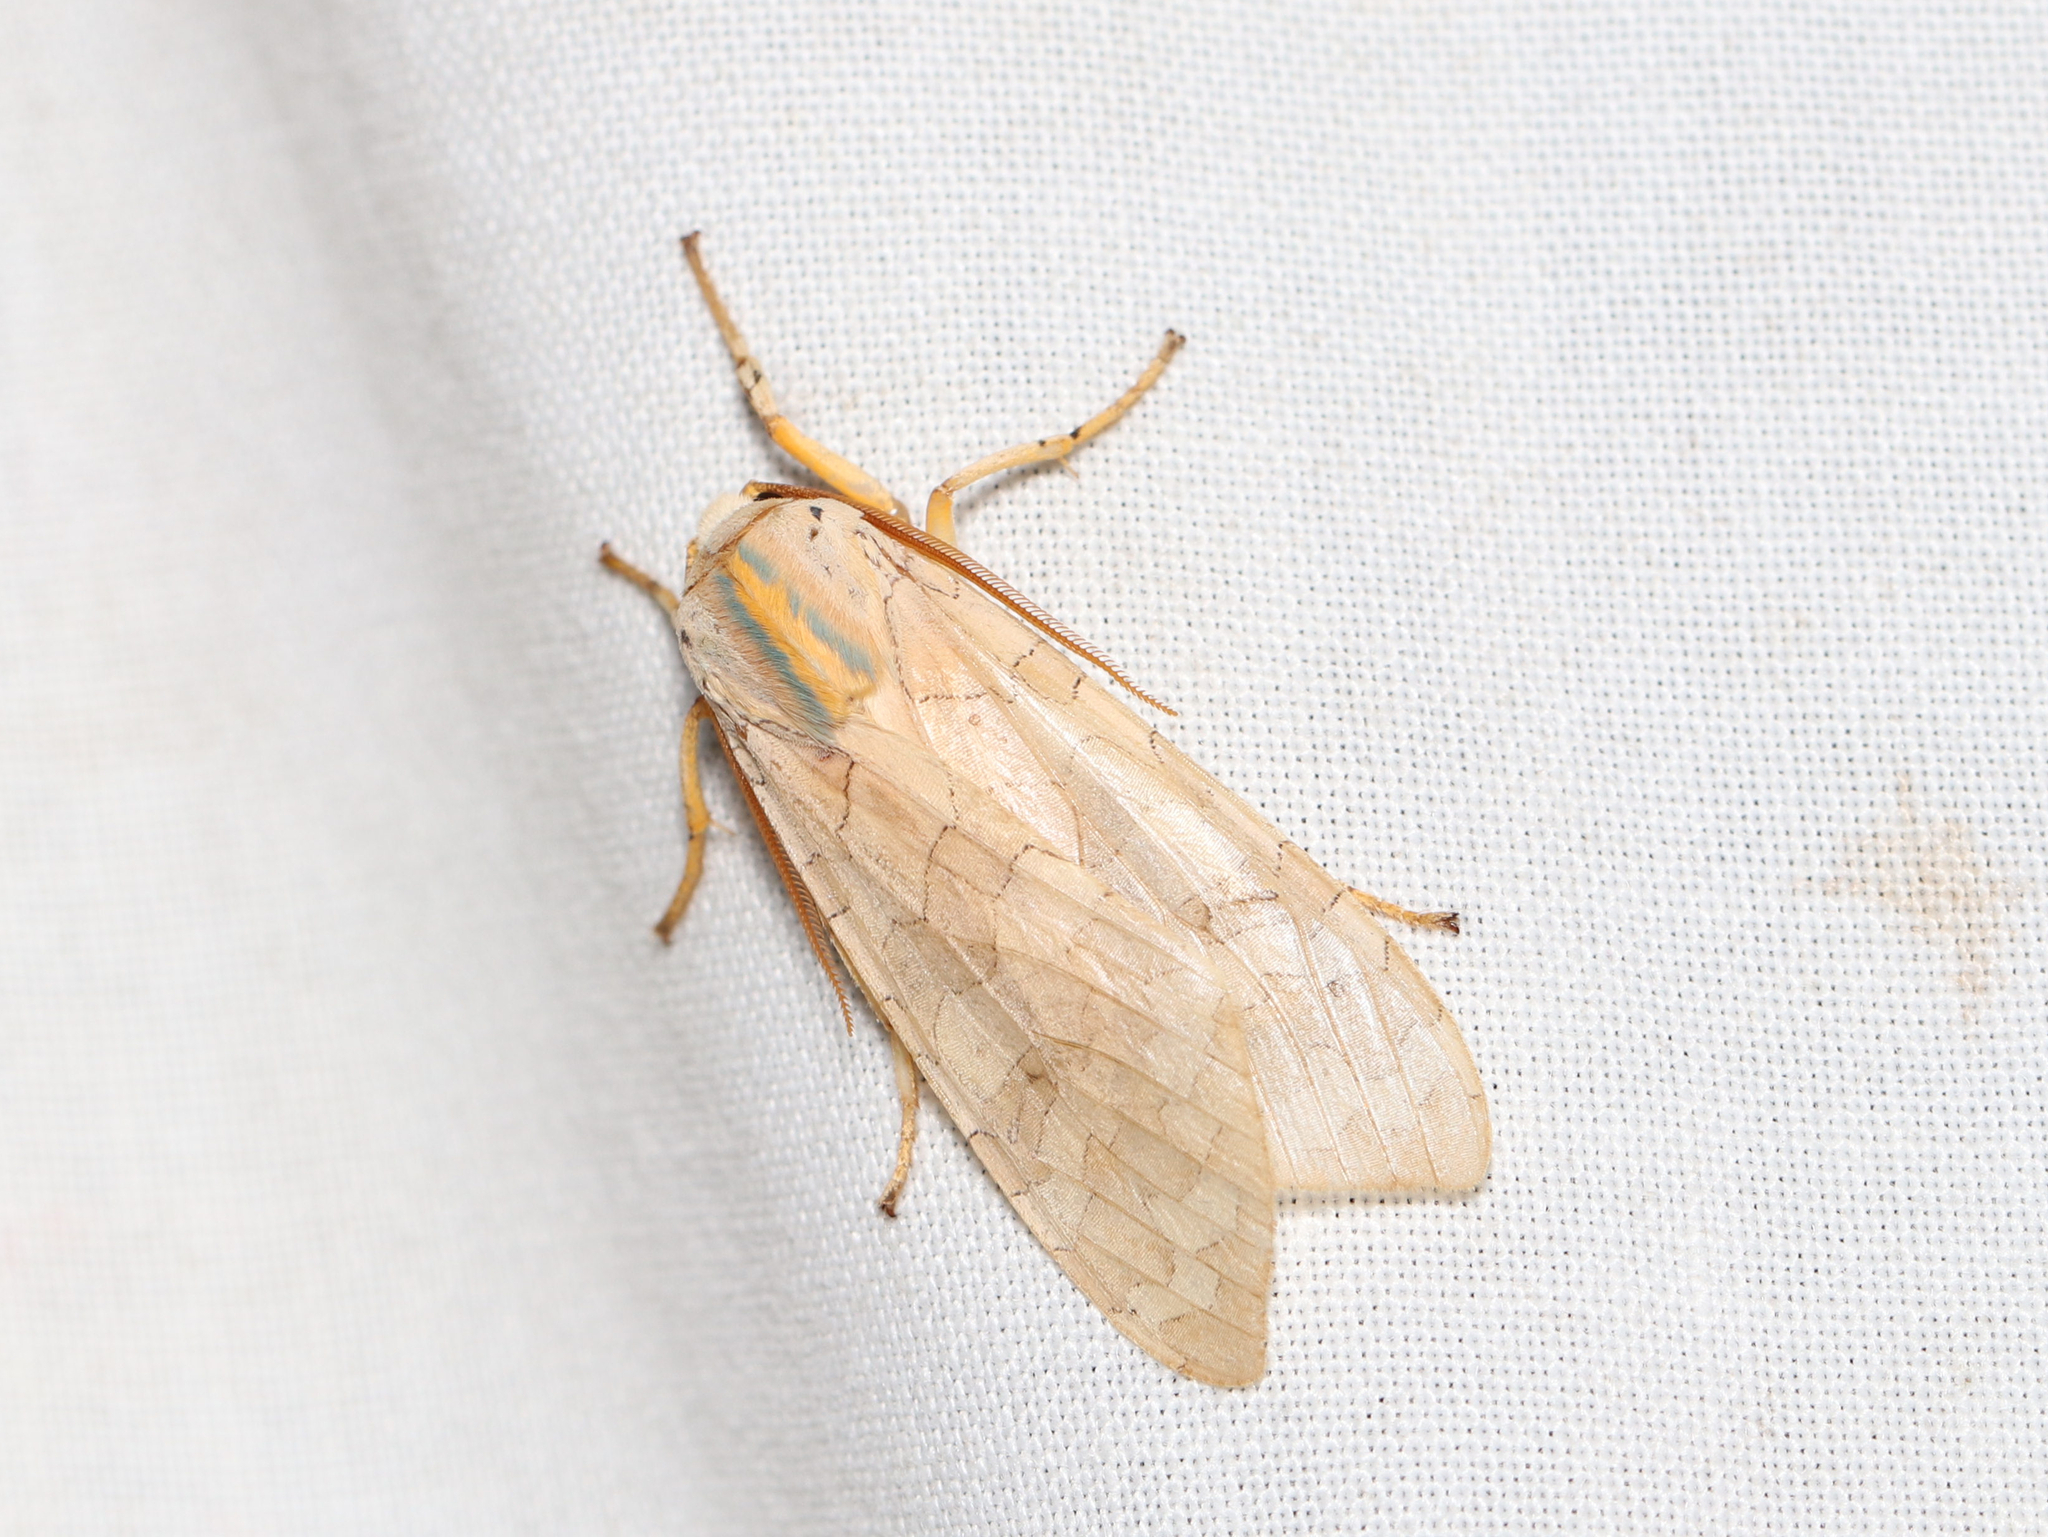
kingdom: Animalia
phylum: Arthropoda
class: Insecta
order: Lepidoptera
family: Erebidae
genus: Halysidota
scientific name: Halysidota
